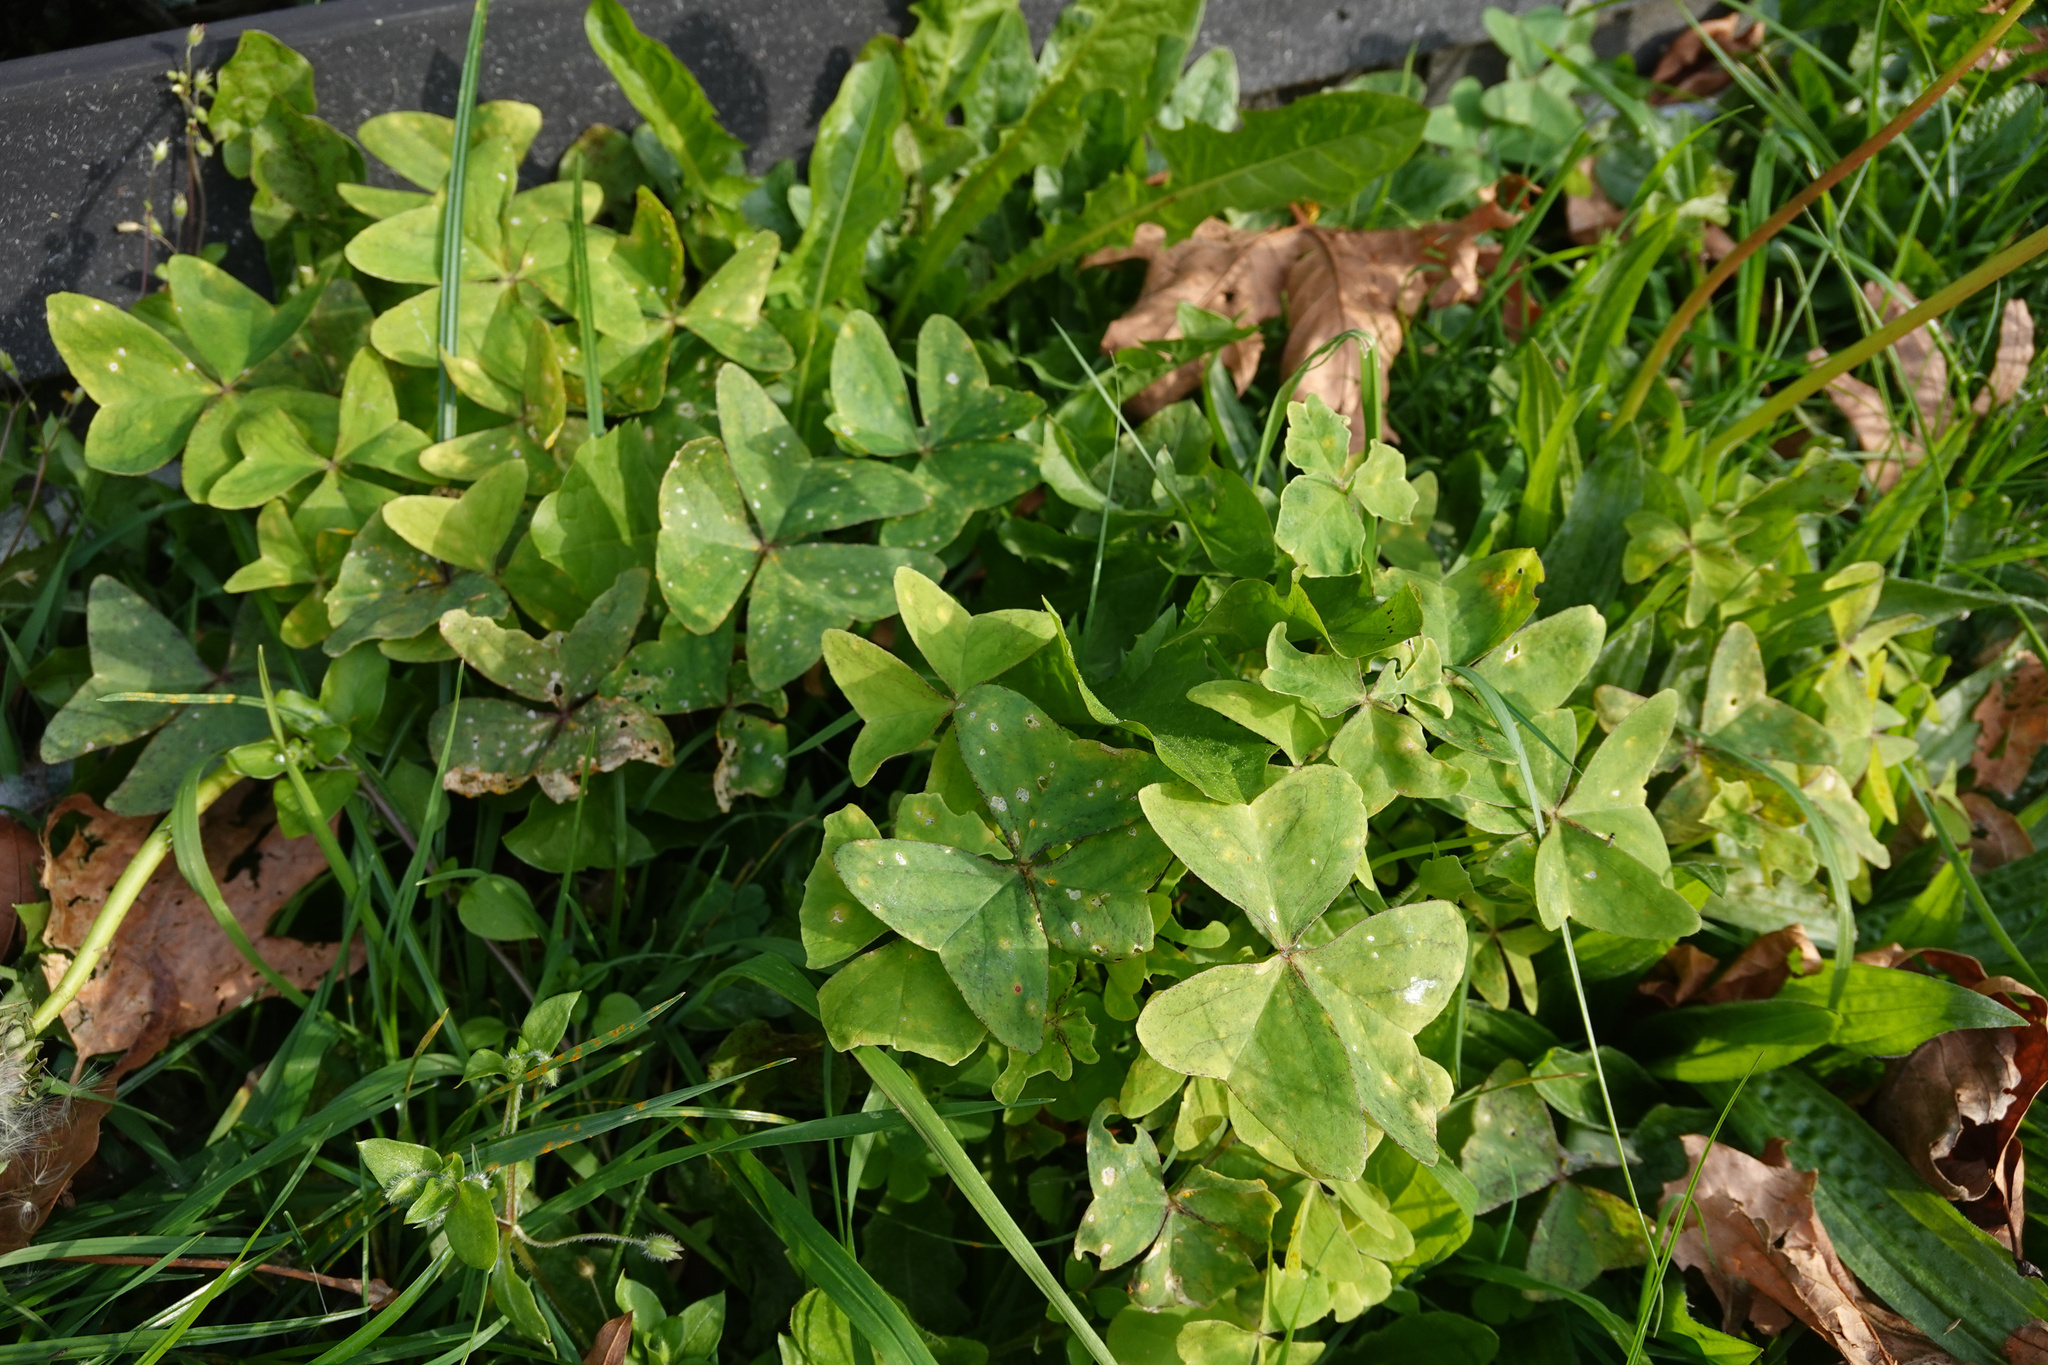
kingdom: Plantae
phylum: Tracheophyta
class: Magnoliopsida
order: Oxalidales
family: Oxalidaceae
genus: Oxalis
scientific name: Oxalis latifolia
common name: Garden pink-sorrel
